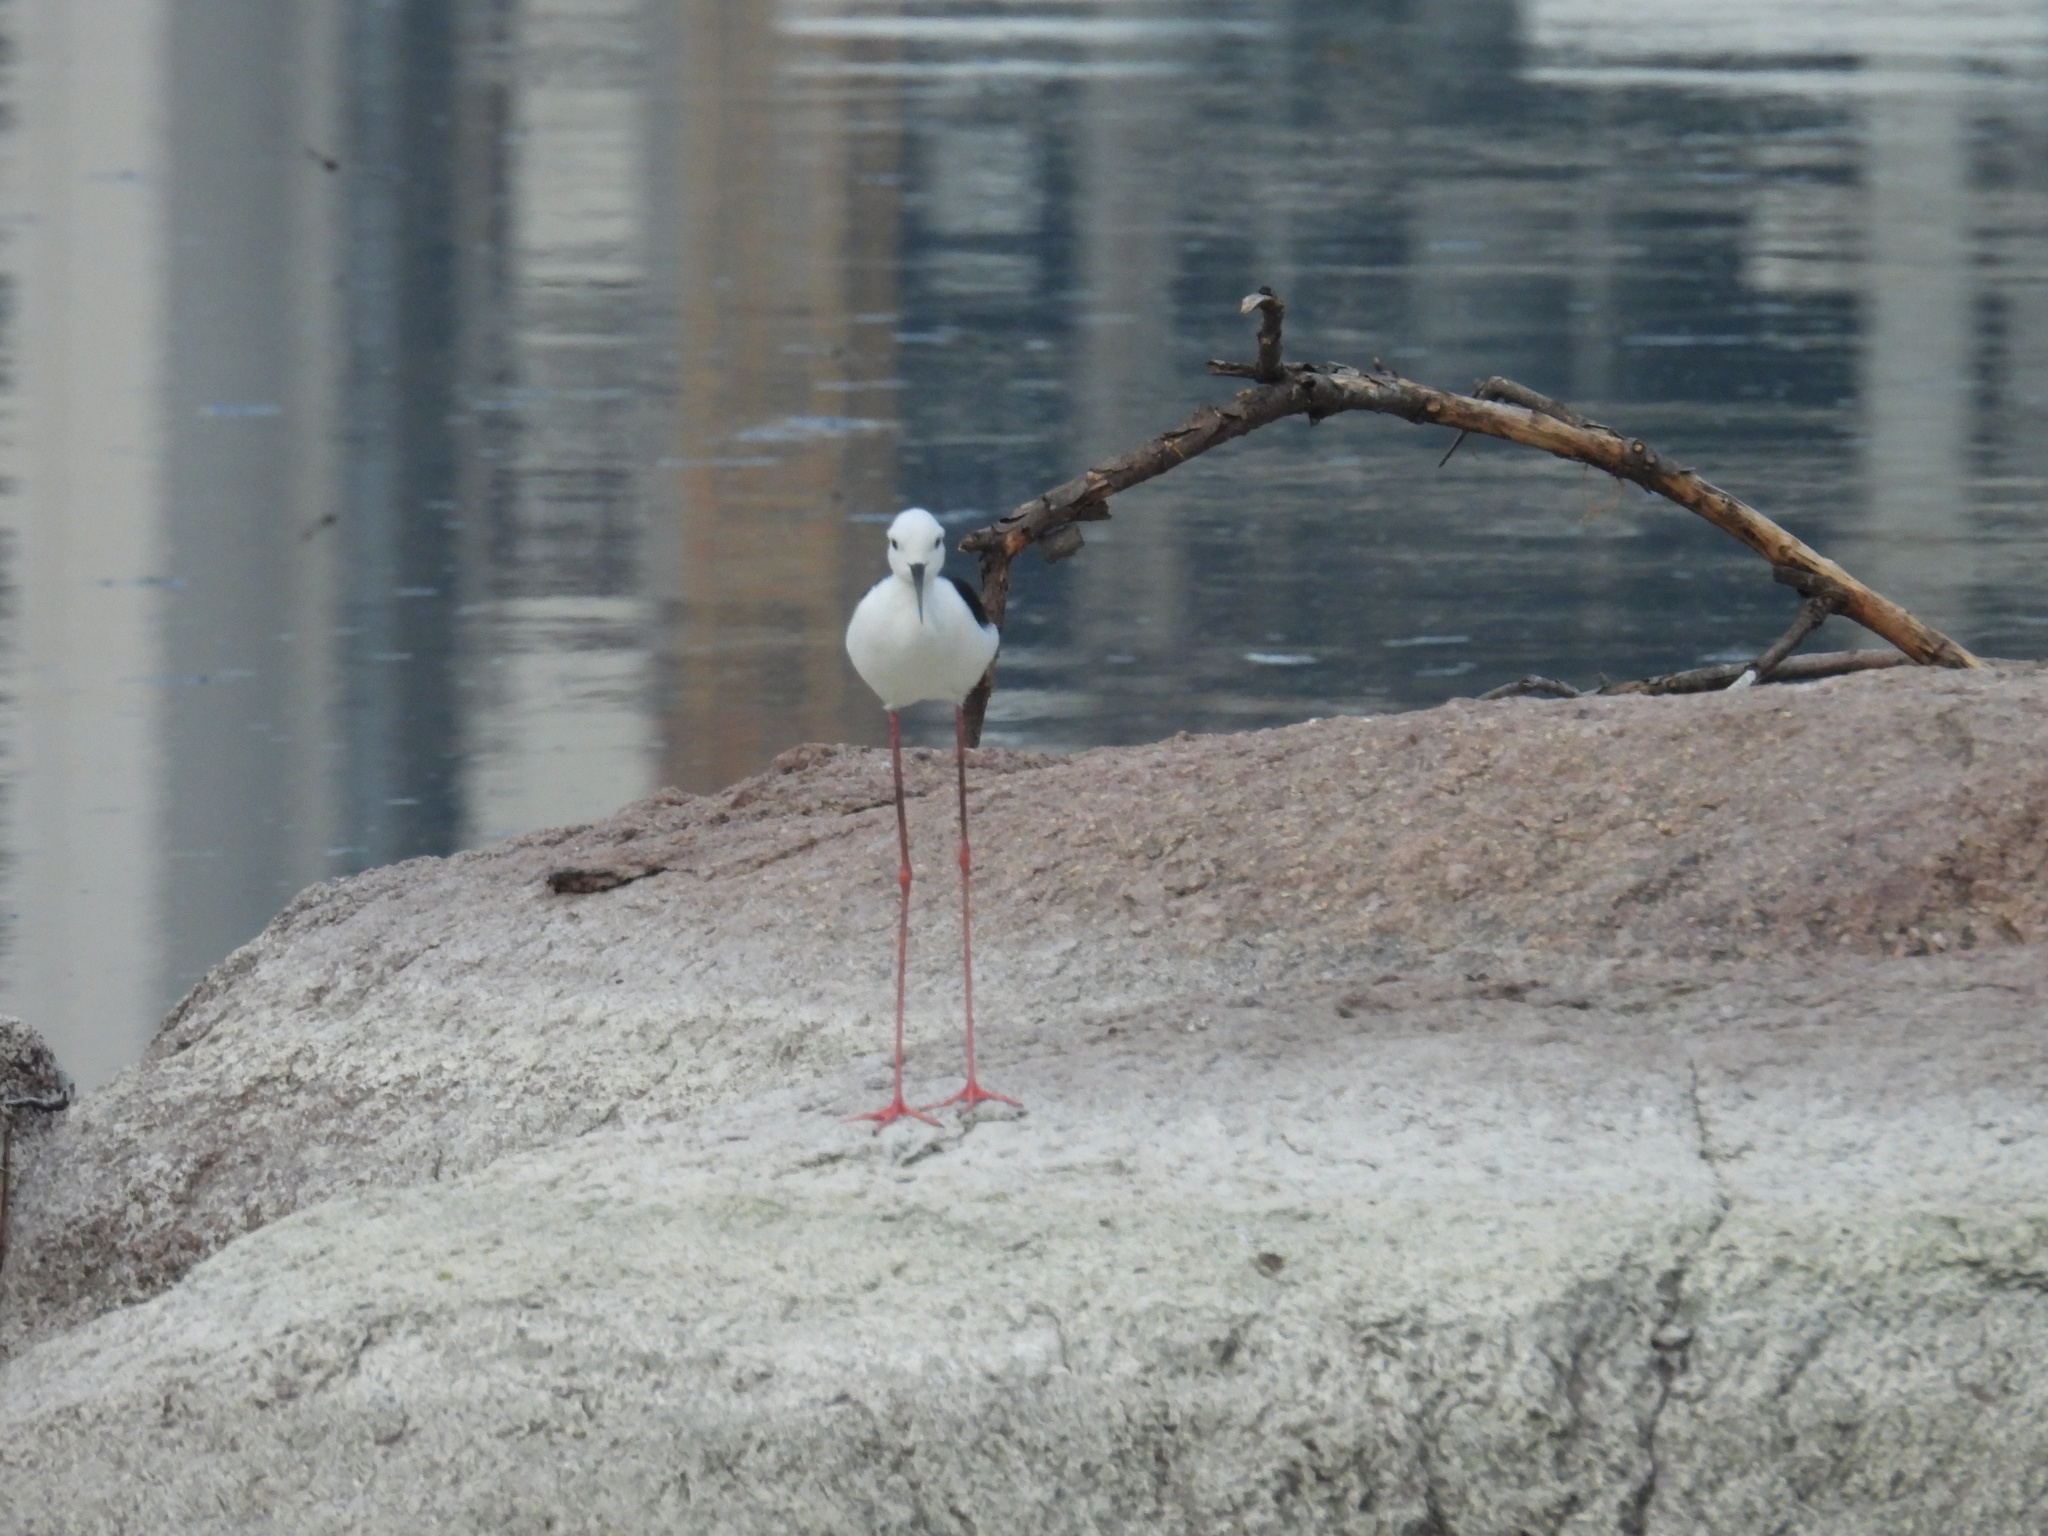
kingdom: Animalia
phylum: Chordata
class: Aves
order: Charadriiformes
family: Recurvirostridae
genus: Himantopus
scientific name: Himantopus himantopus
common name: Black-winged stilt
